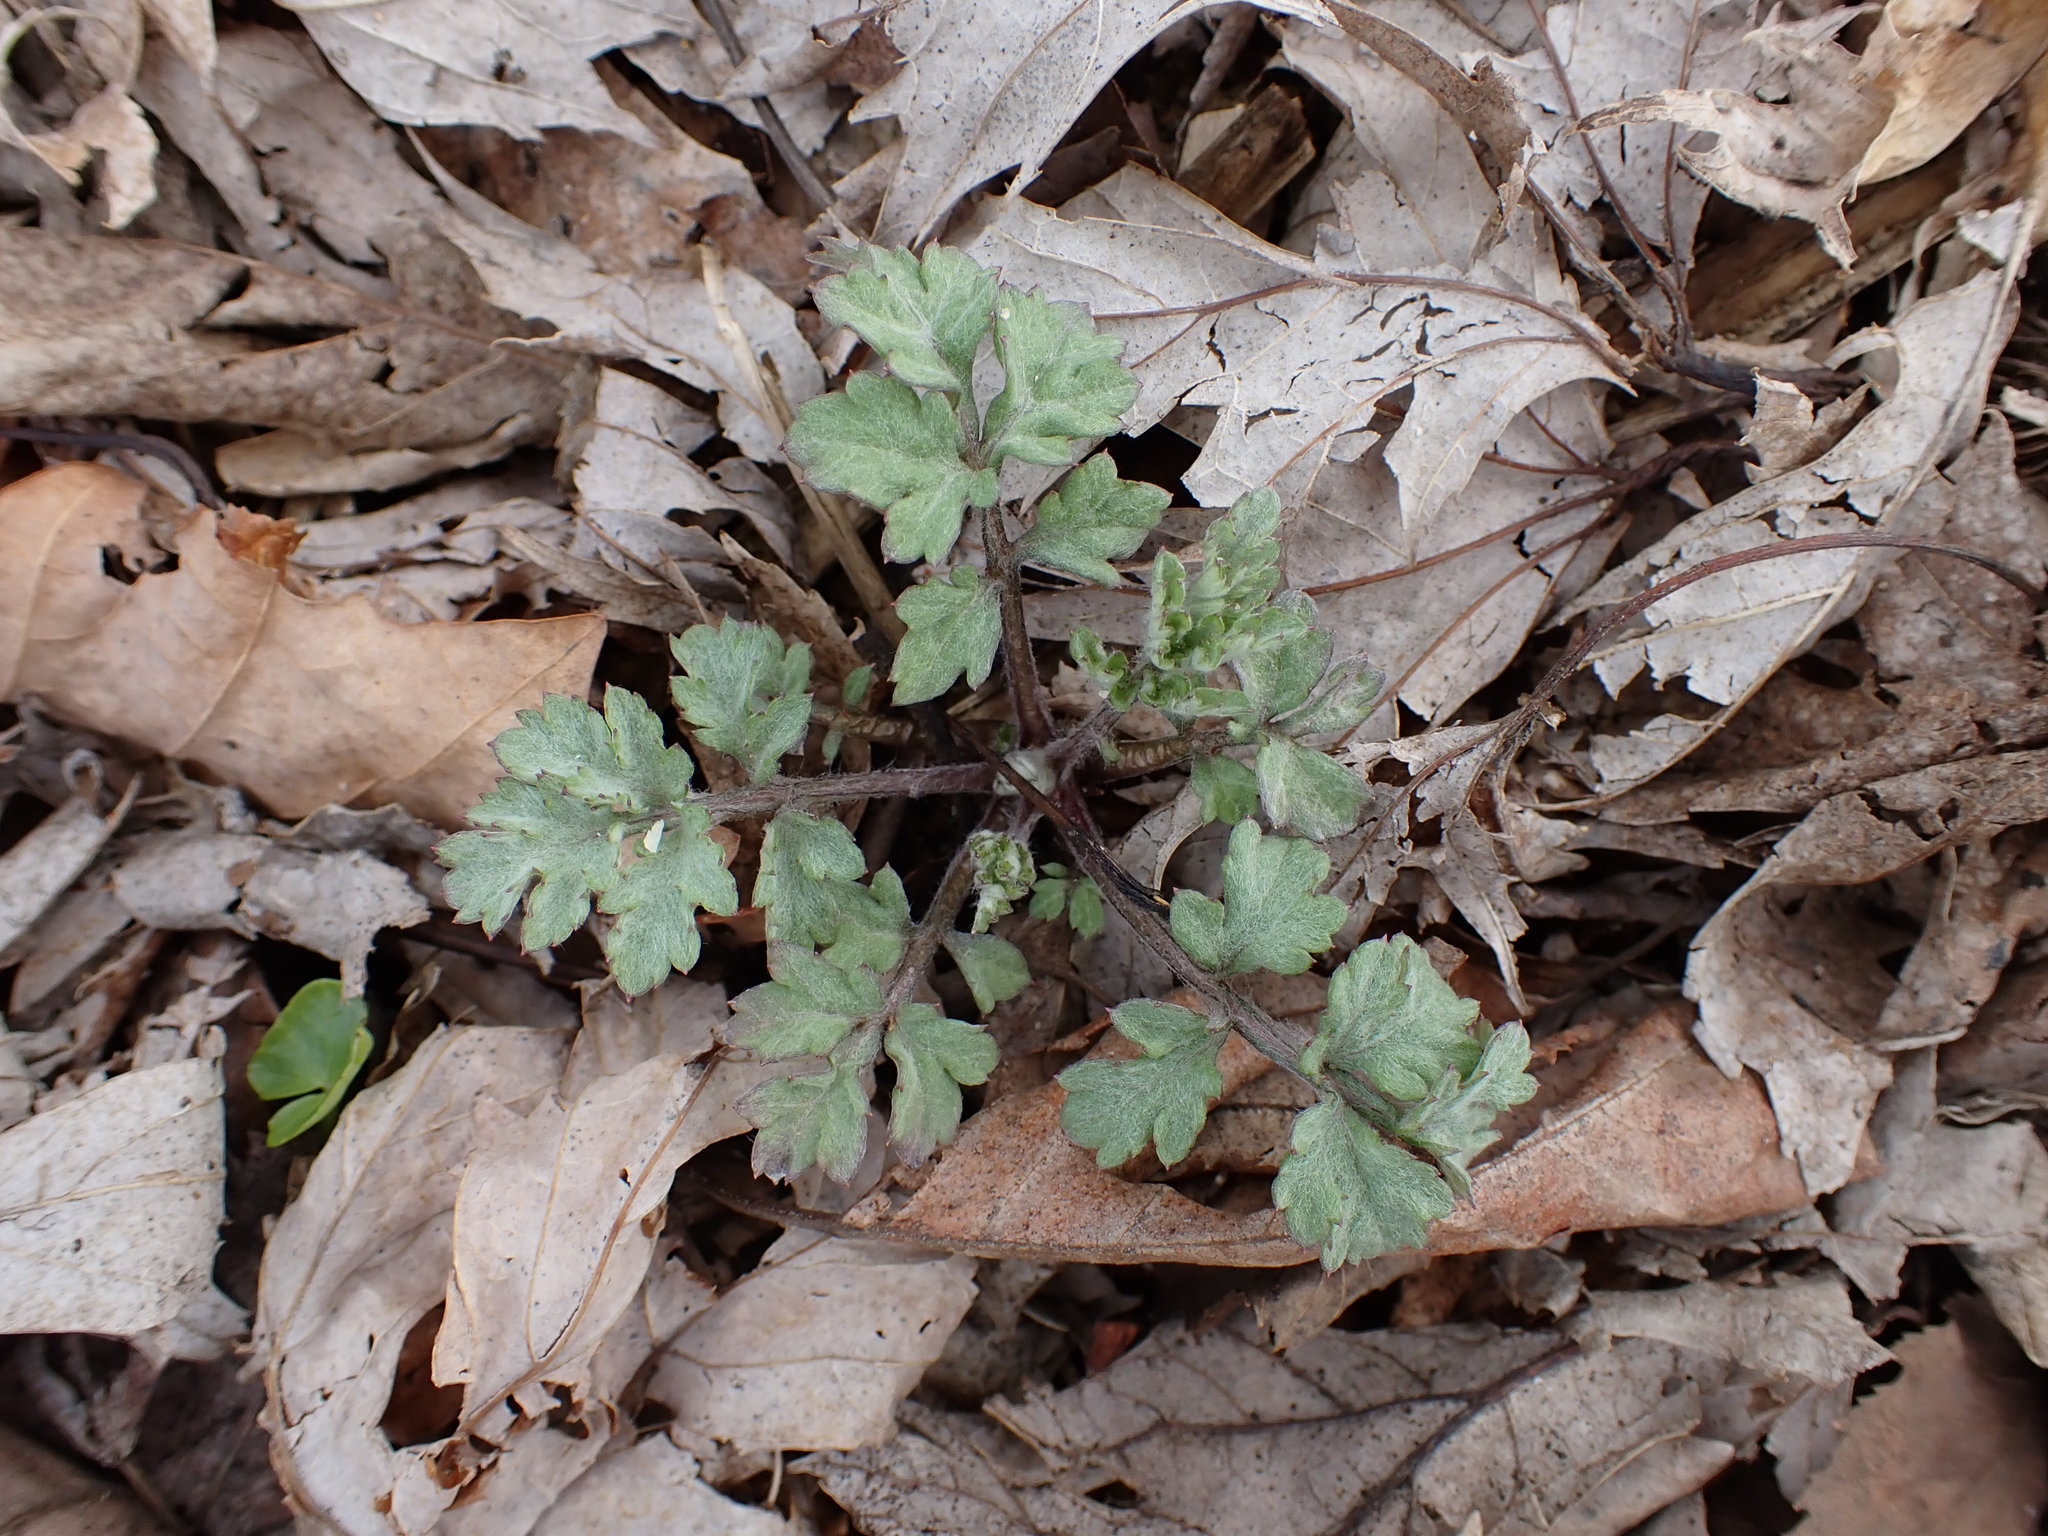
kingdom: Plantae
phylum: Tracheophyta
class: Magnoliopsida
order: Asterales
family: Asteraceae
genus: Artemisia
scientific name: Artemisia vulgaris
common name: Mugwort
